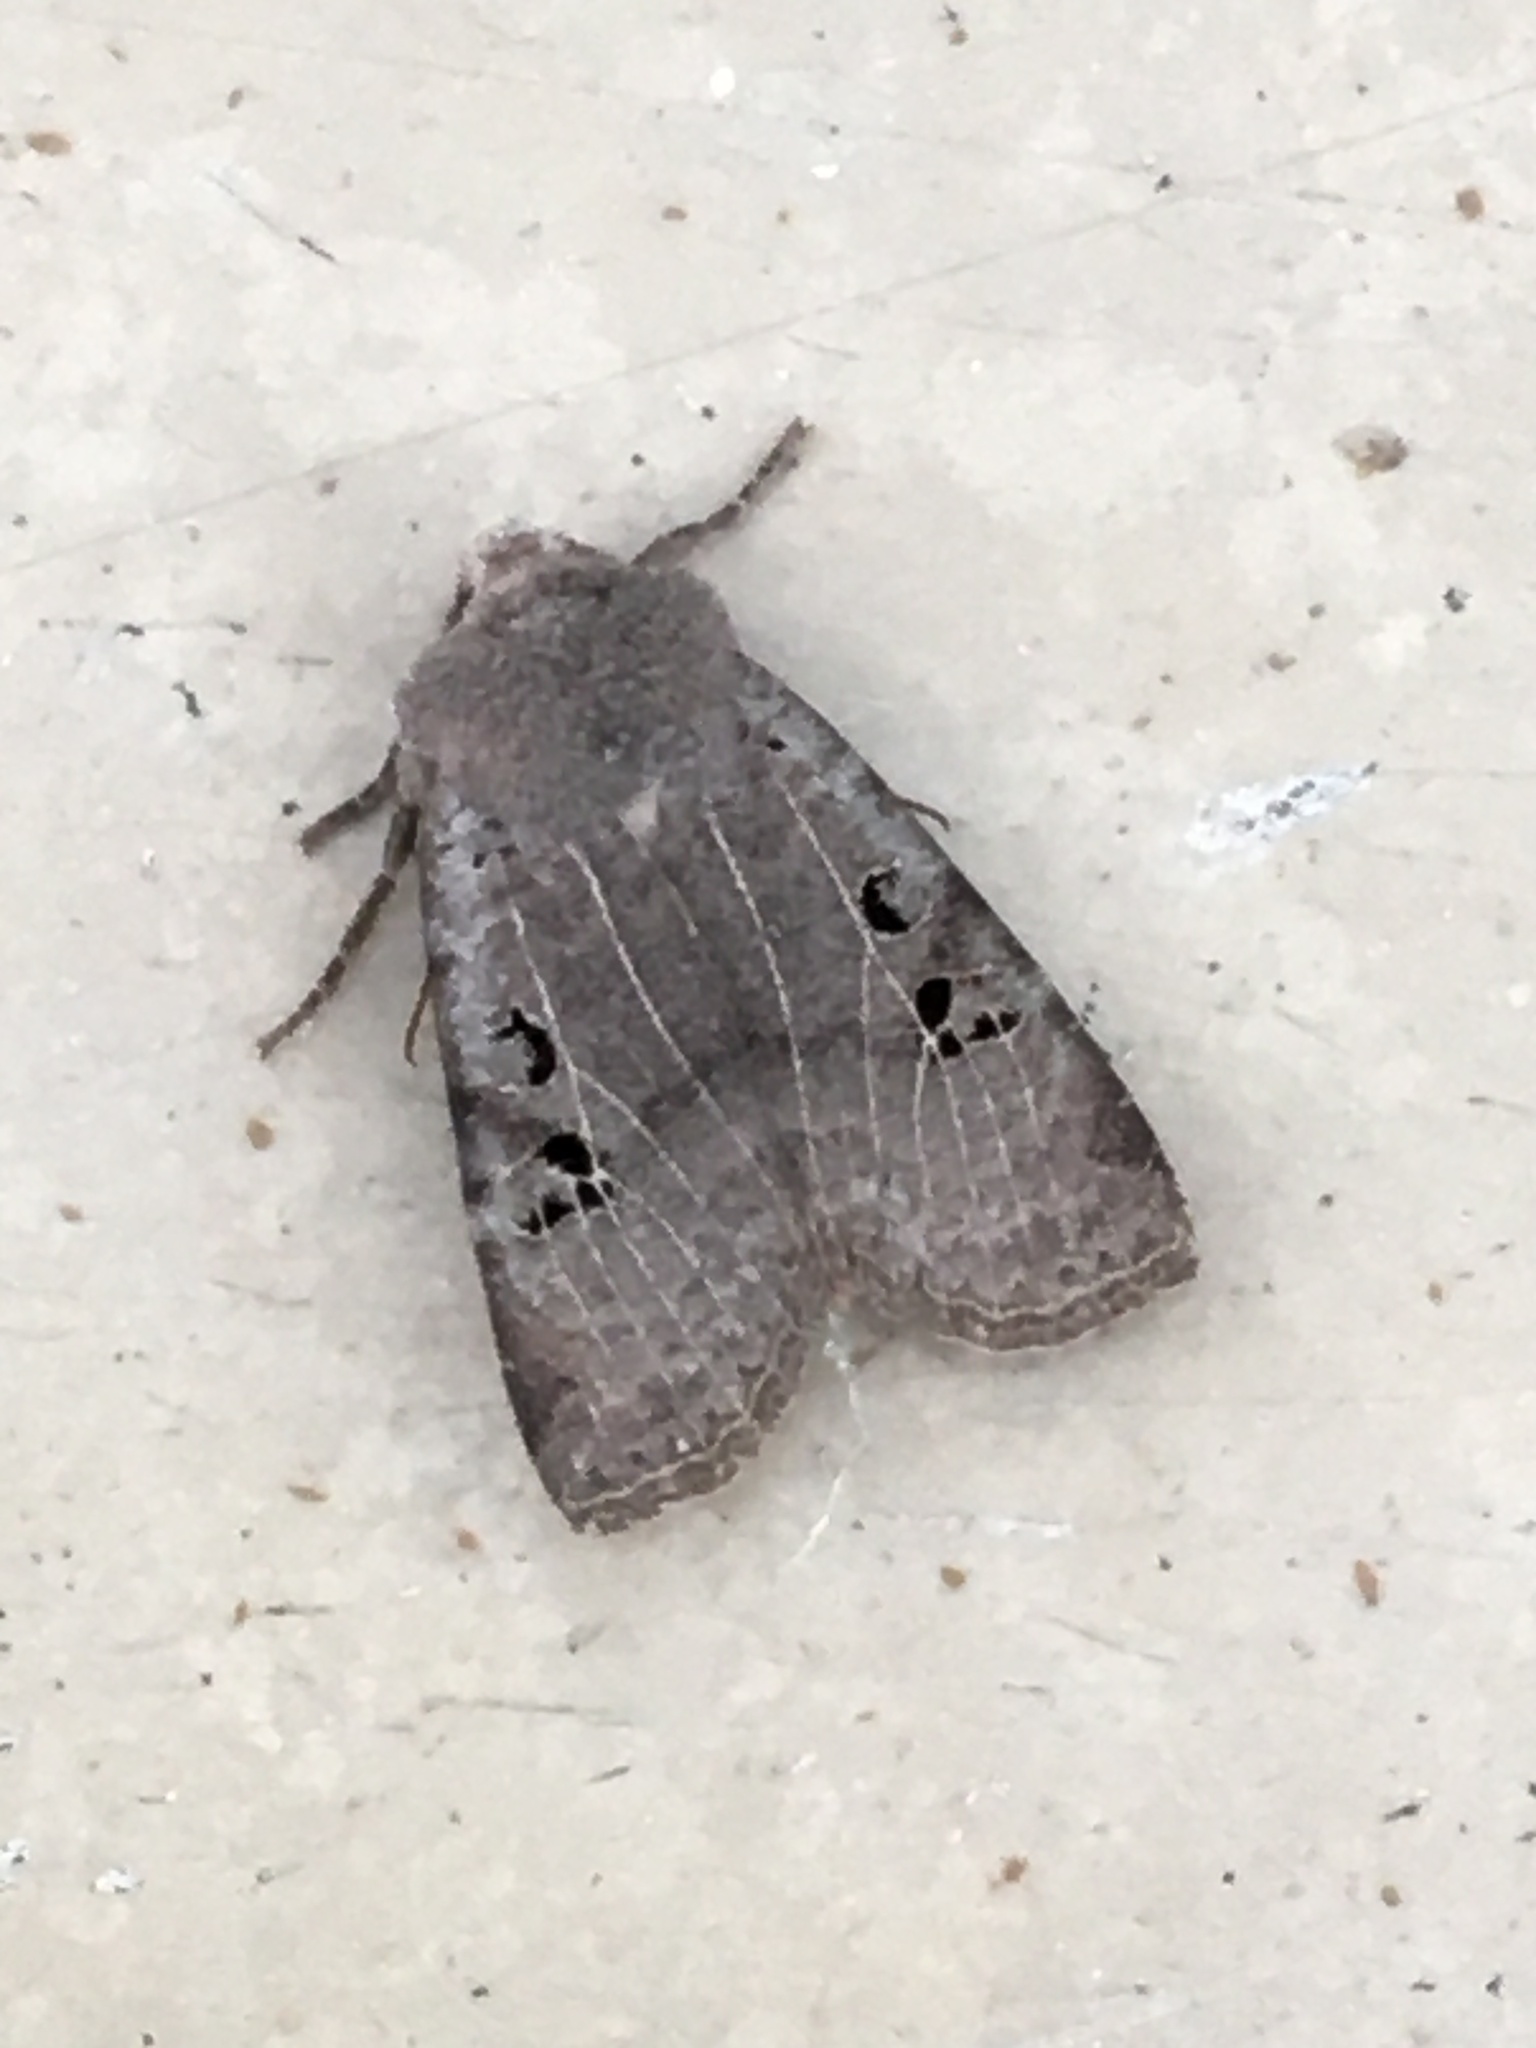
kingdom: Animalia
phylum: Arthropoda
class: Insecta
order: Lepidoptera
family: Noctuidae
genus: Conistra
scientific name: Conistra rubiginosa
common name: Black-spotted chestnut
